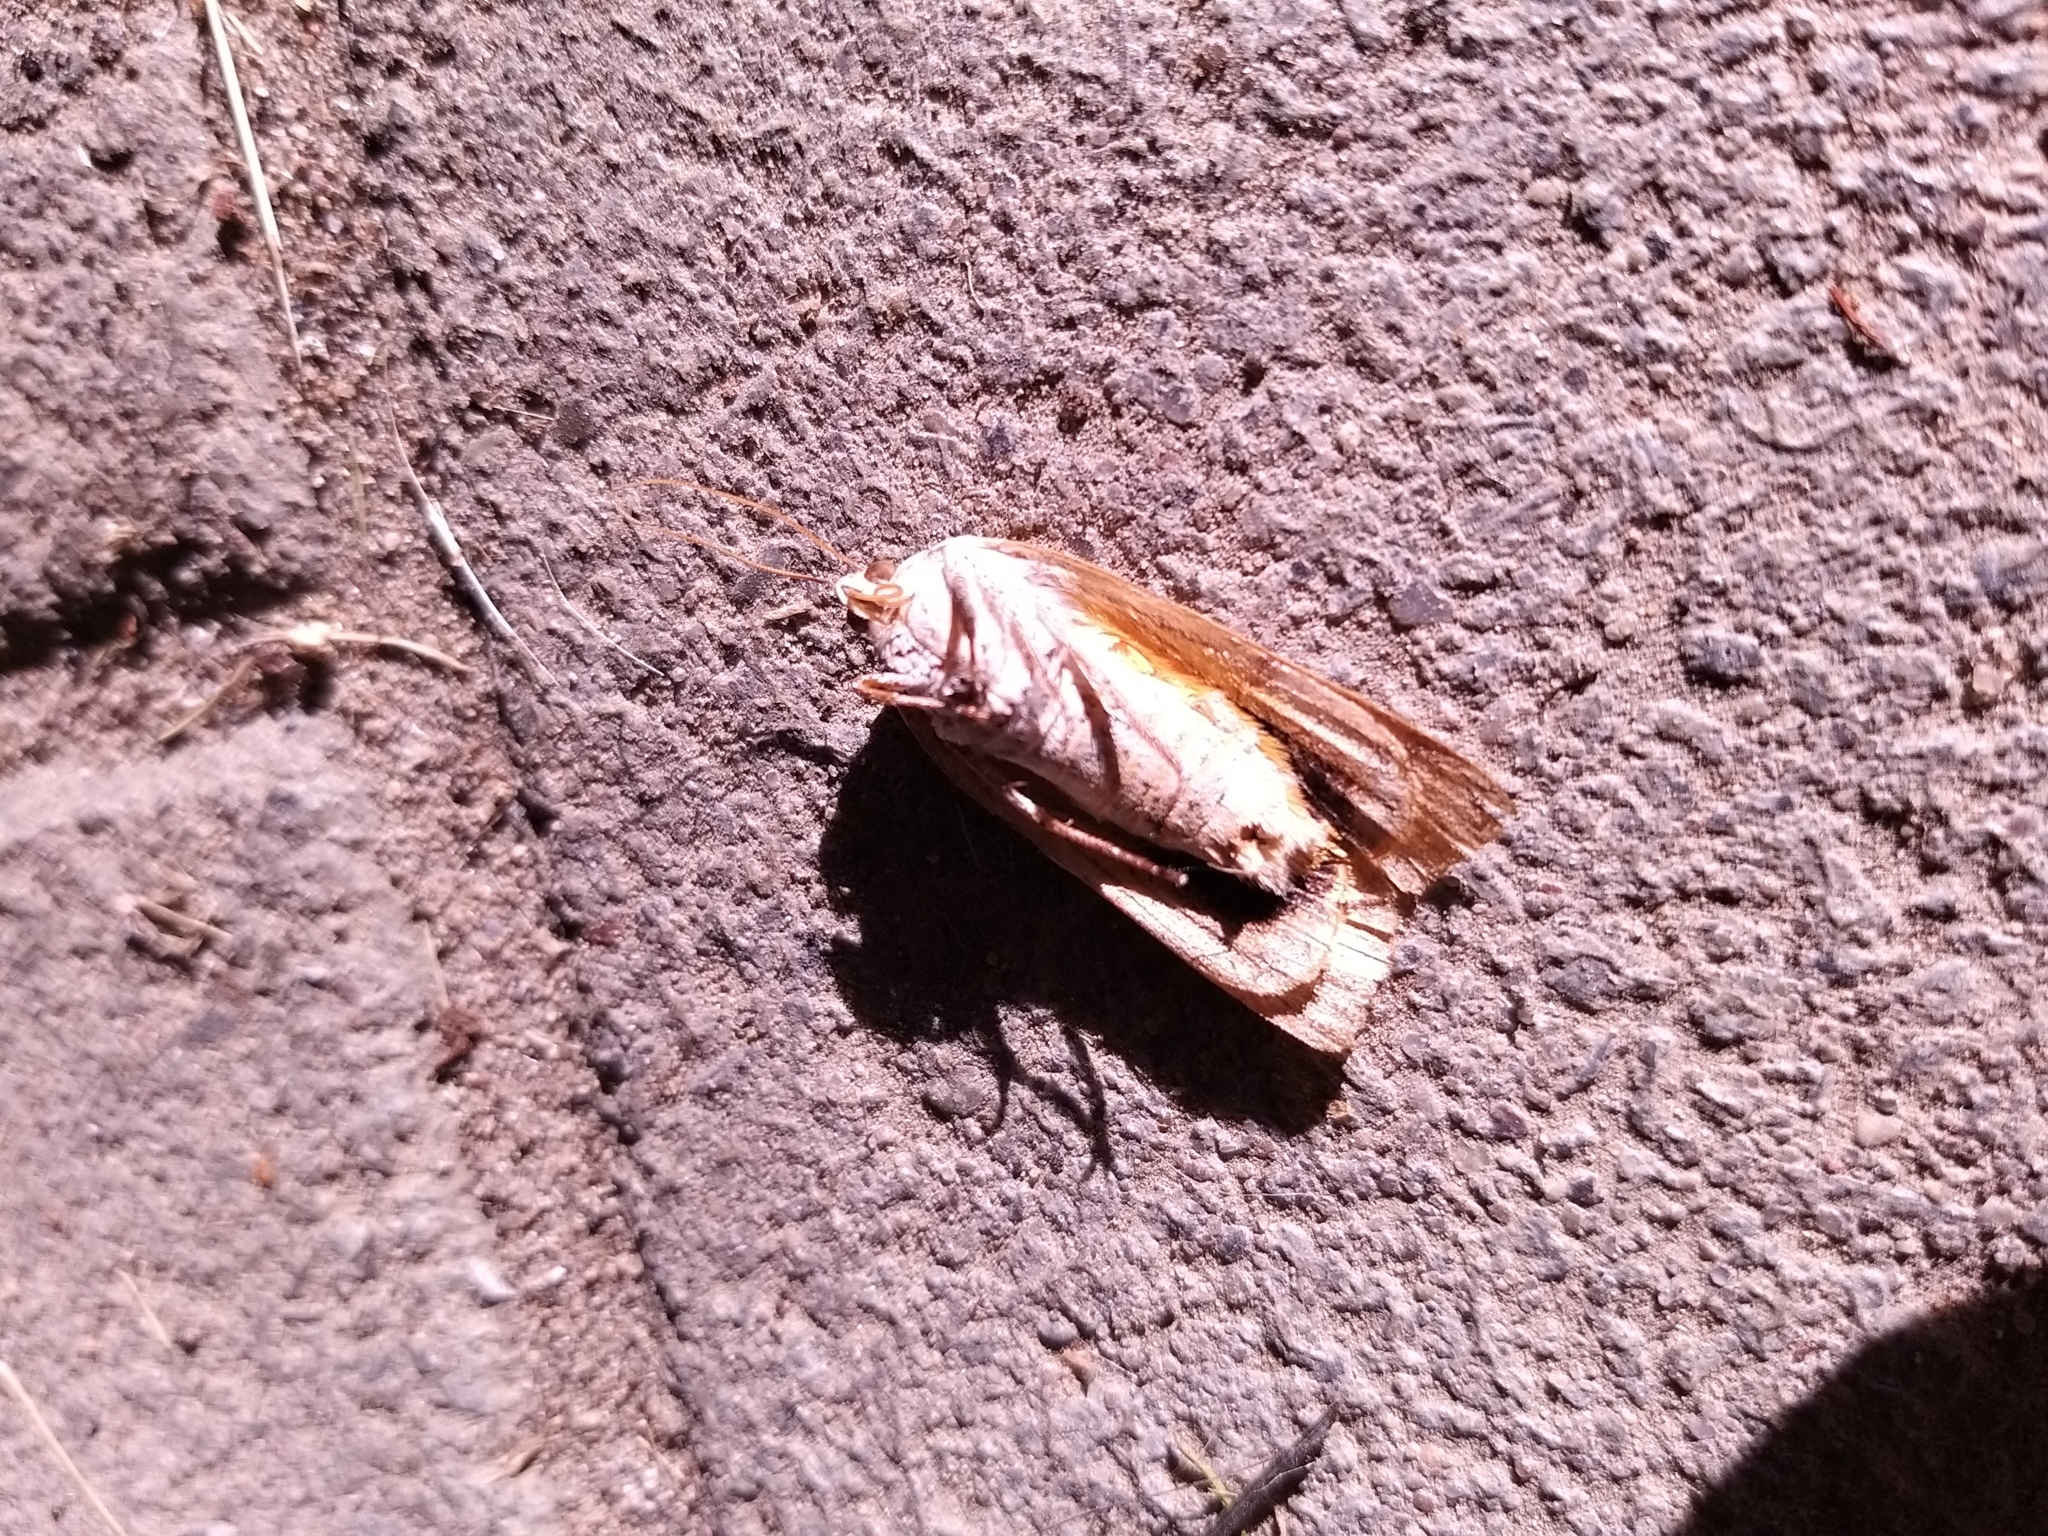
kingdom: Animalia
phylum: Arthropoda
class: Insecta
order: Lepidoptera
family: Pyralidae
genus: Galleria
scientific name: Galleria mellonella
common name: Greater wax moth
